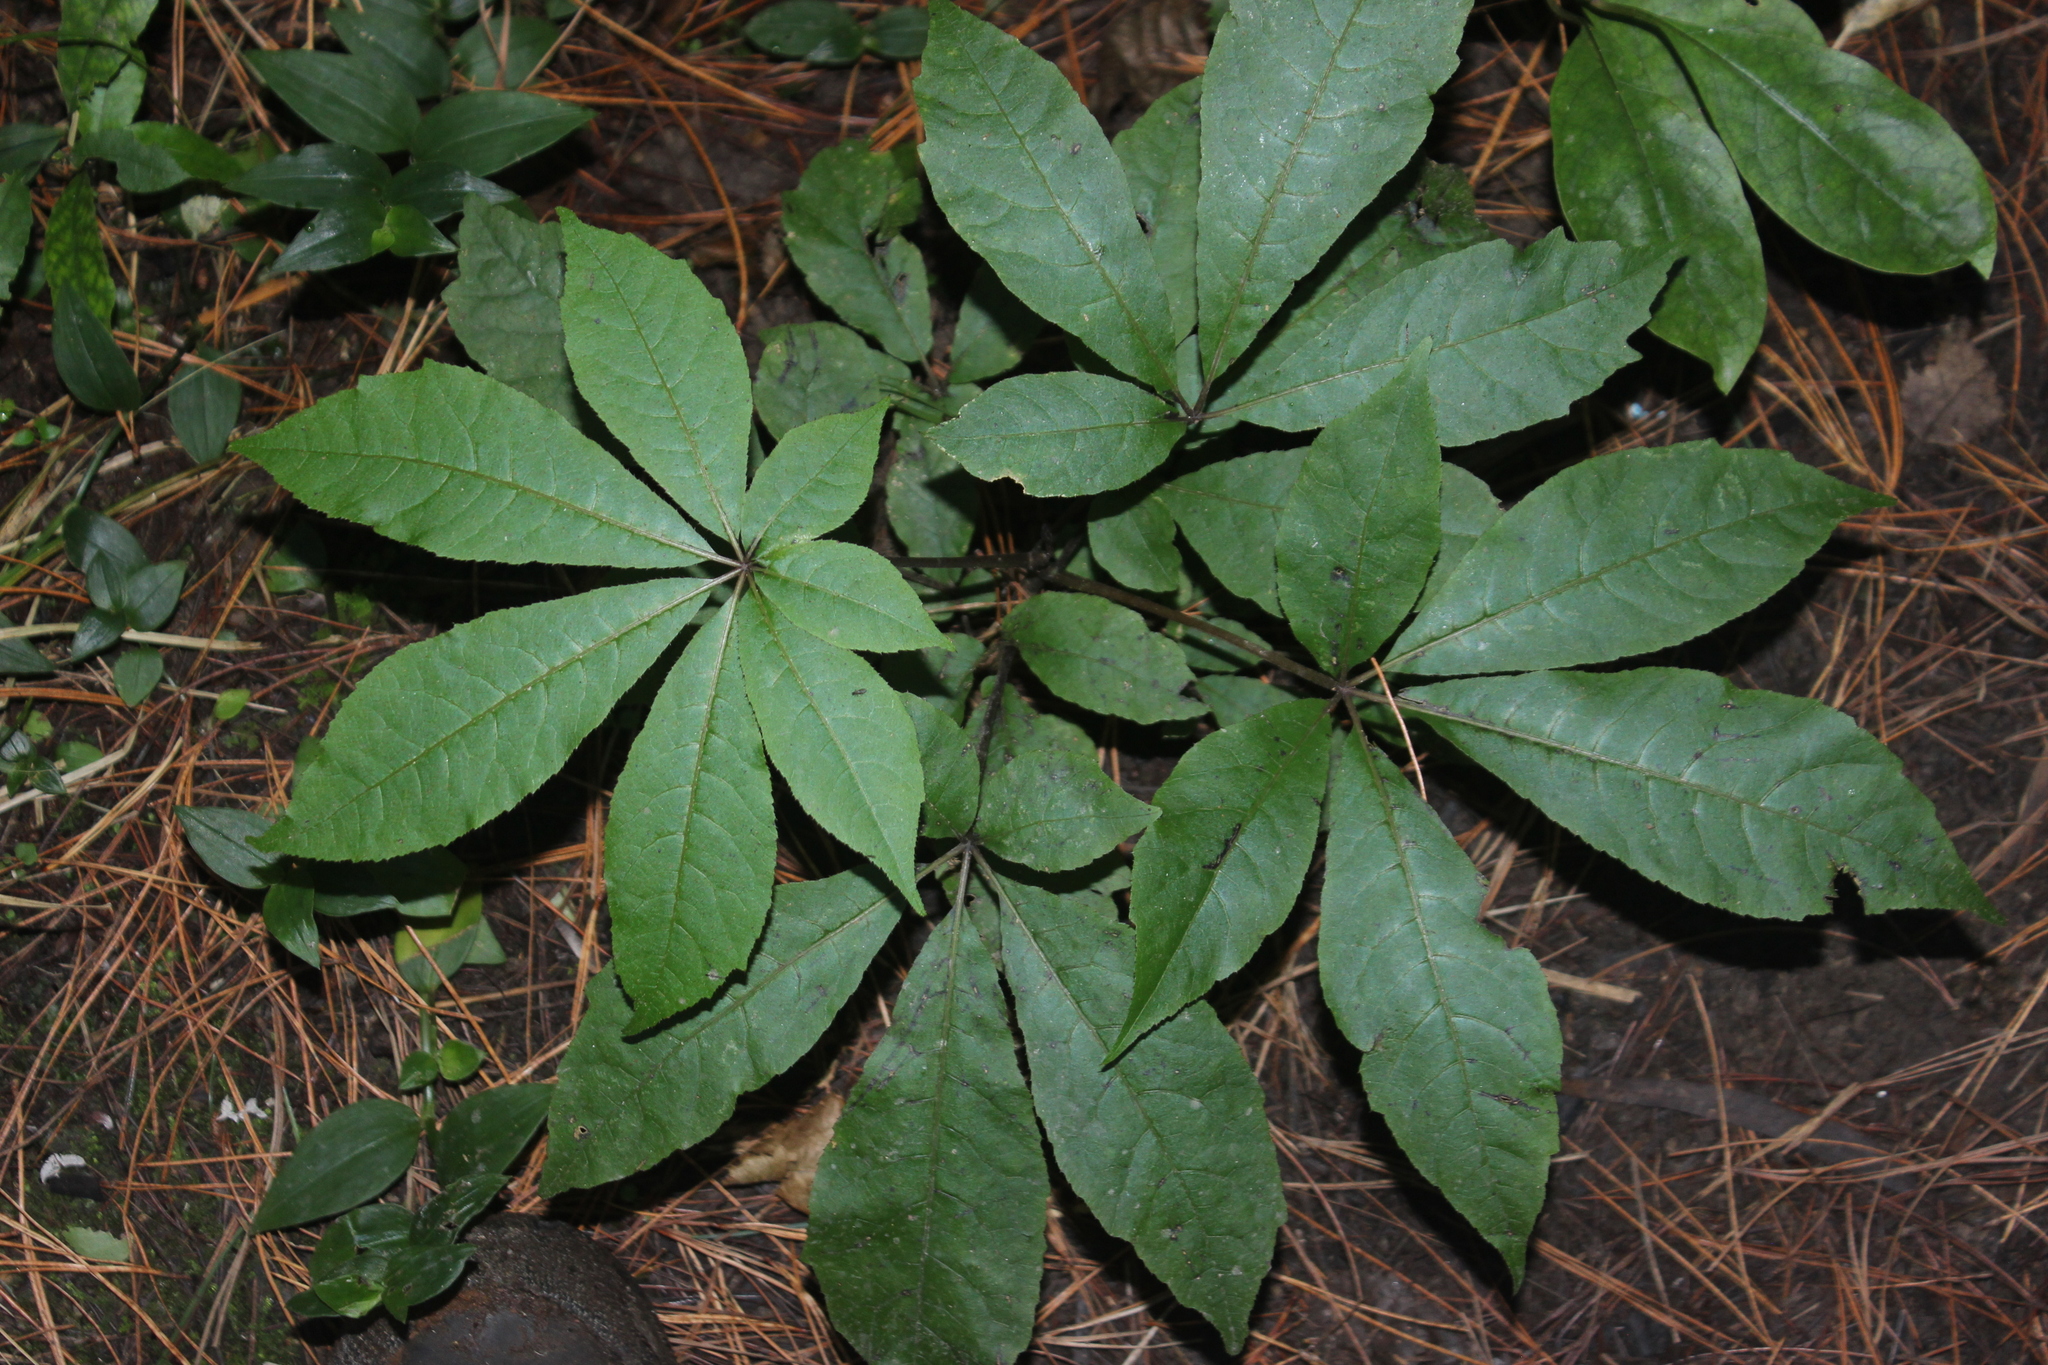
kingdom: Plantae
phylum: Tracheophyta
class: Magnoliopsida
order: Apiales
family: Araliaceae
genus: Schefflera
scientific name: Schefflera digitata
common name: Pate
